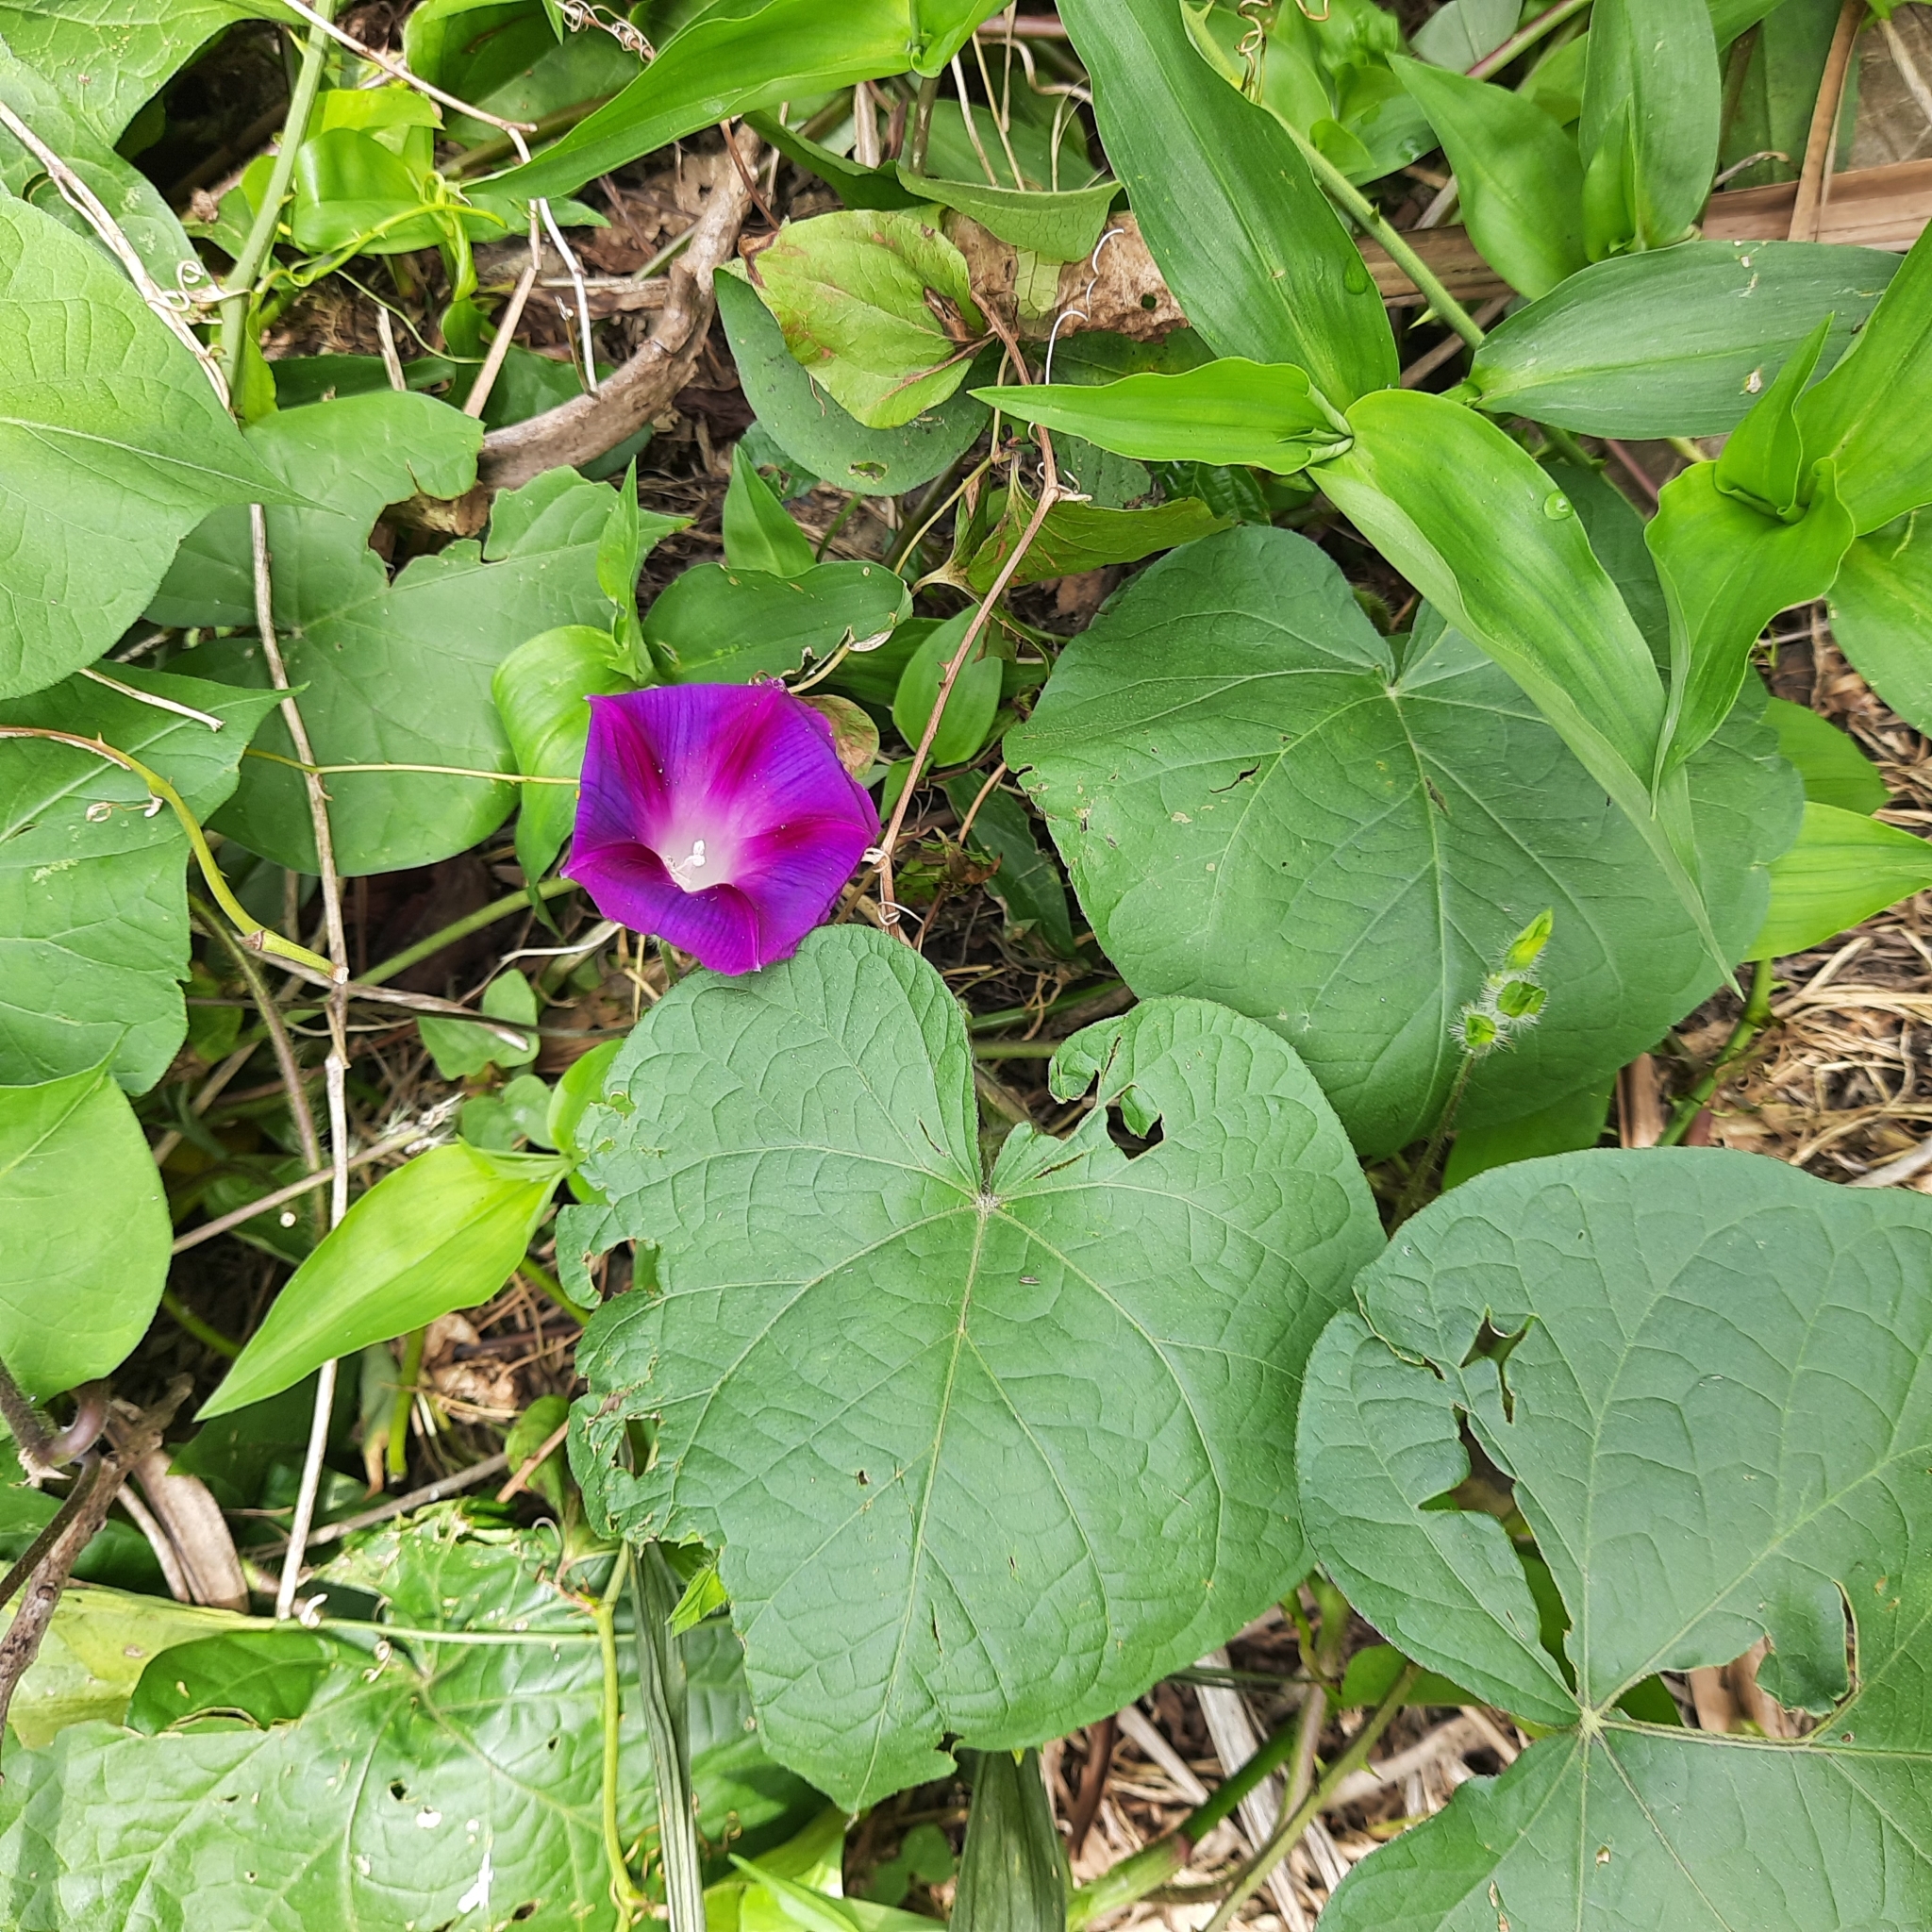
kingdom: Plantae
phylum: Tracheophyta
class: Magnoliopsida
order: Solanales
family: Convolvulaceae
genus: Ipomoea
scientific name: Ipomoea purpurea
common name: Common morning-glory
